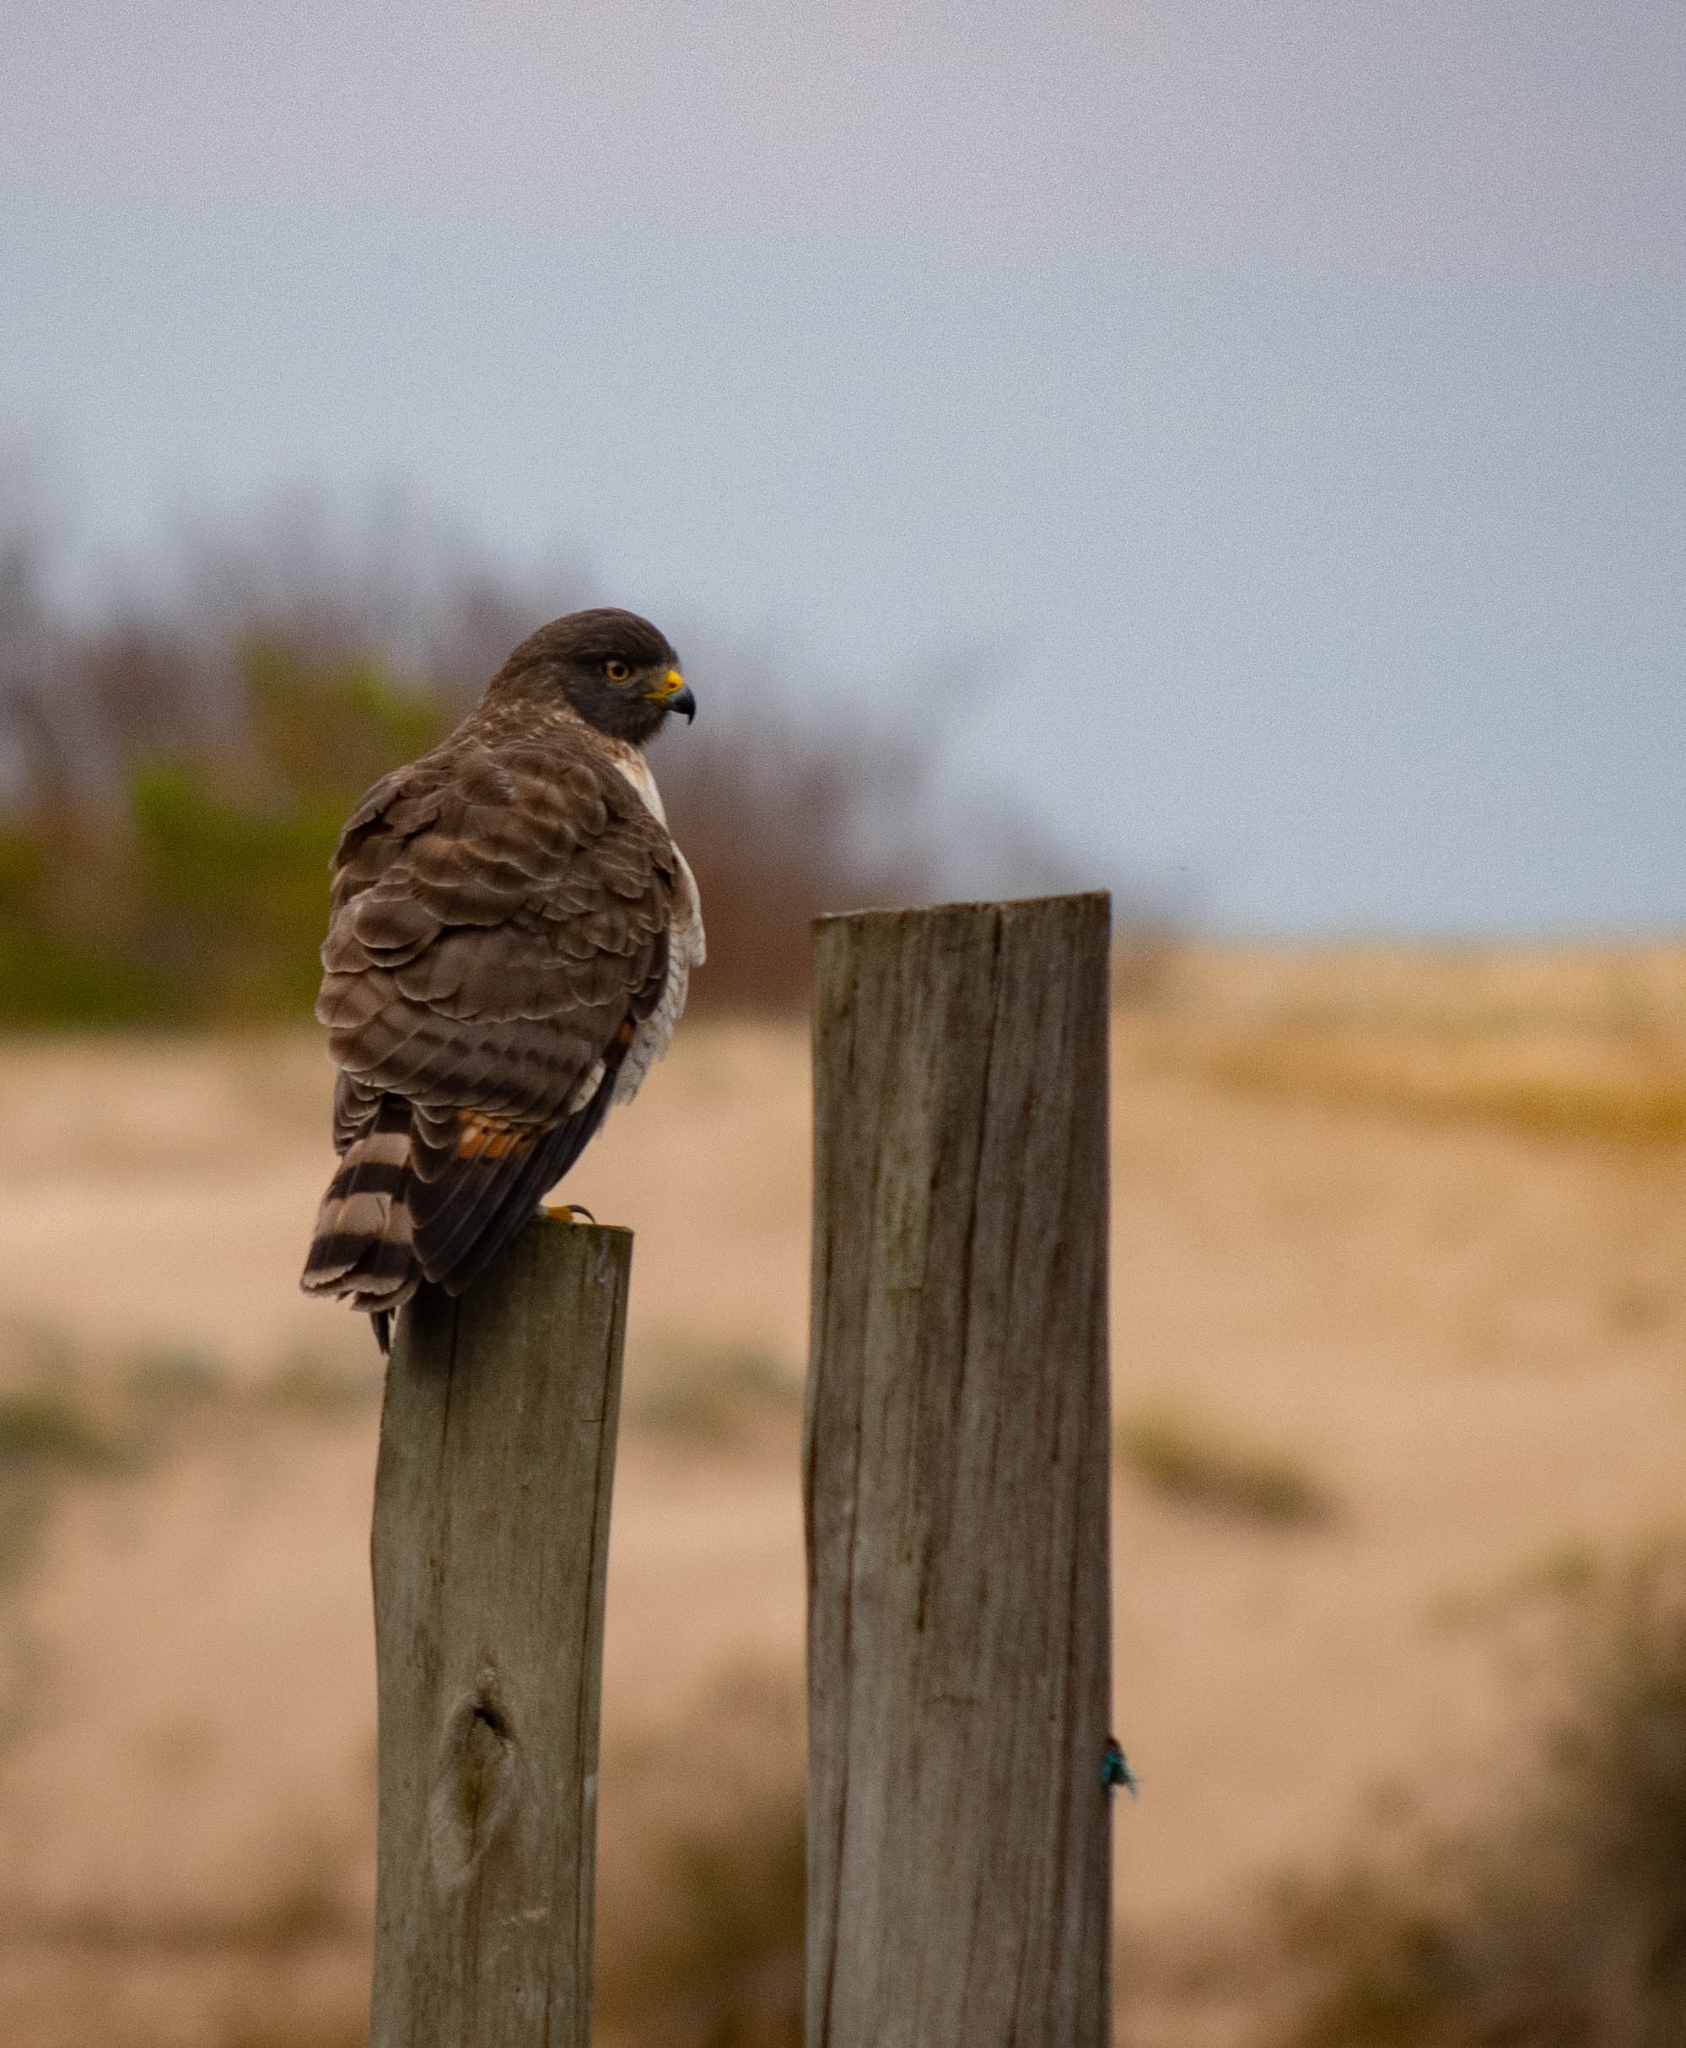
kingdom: Animalia
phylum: Chordata
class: Aves
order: Accipitriformes
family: Accipitridae
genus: Rupornis
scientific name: Rupornis magnirostris
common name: Roadside hawk
